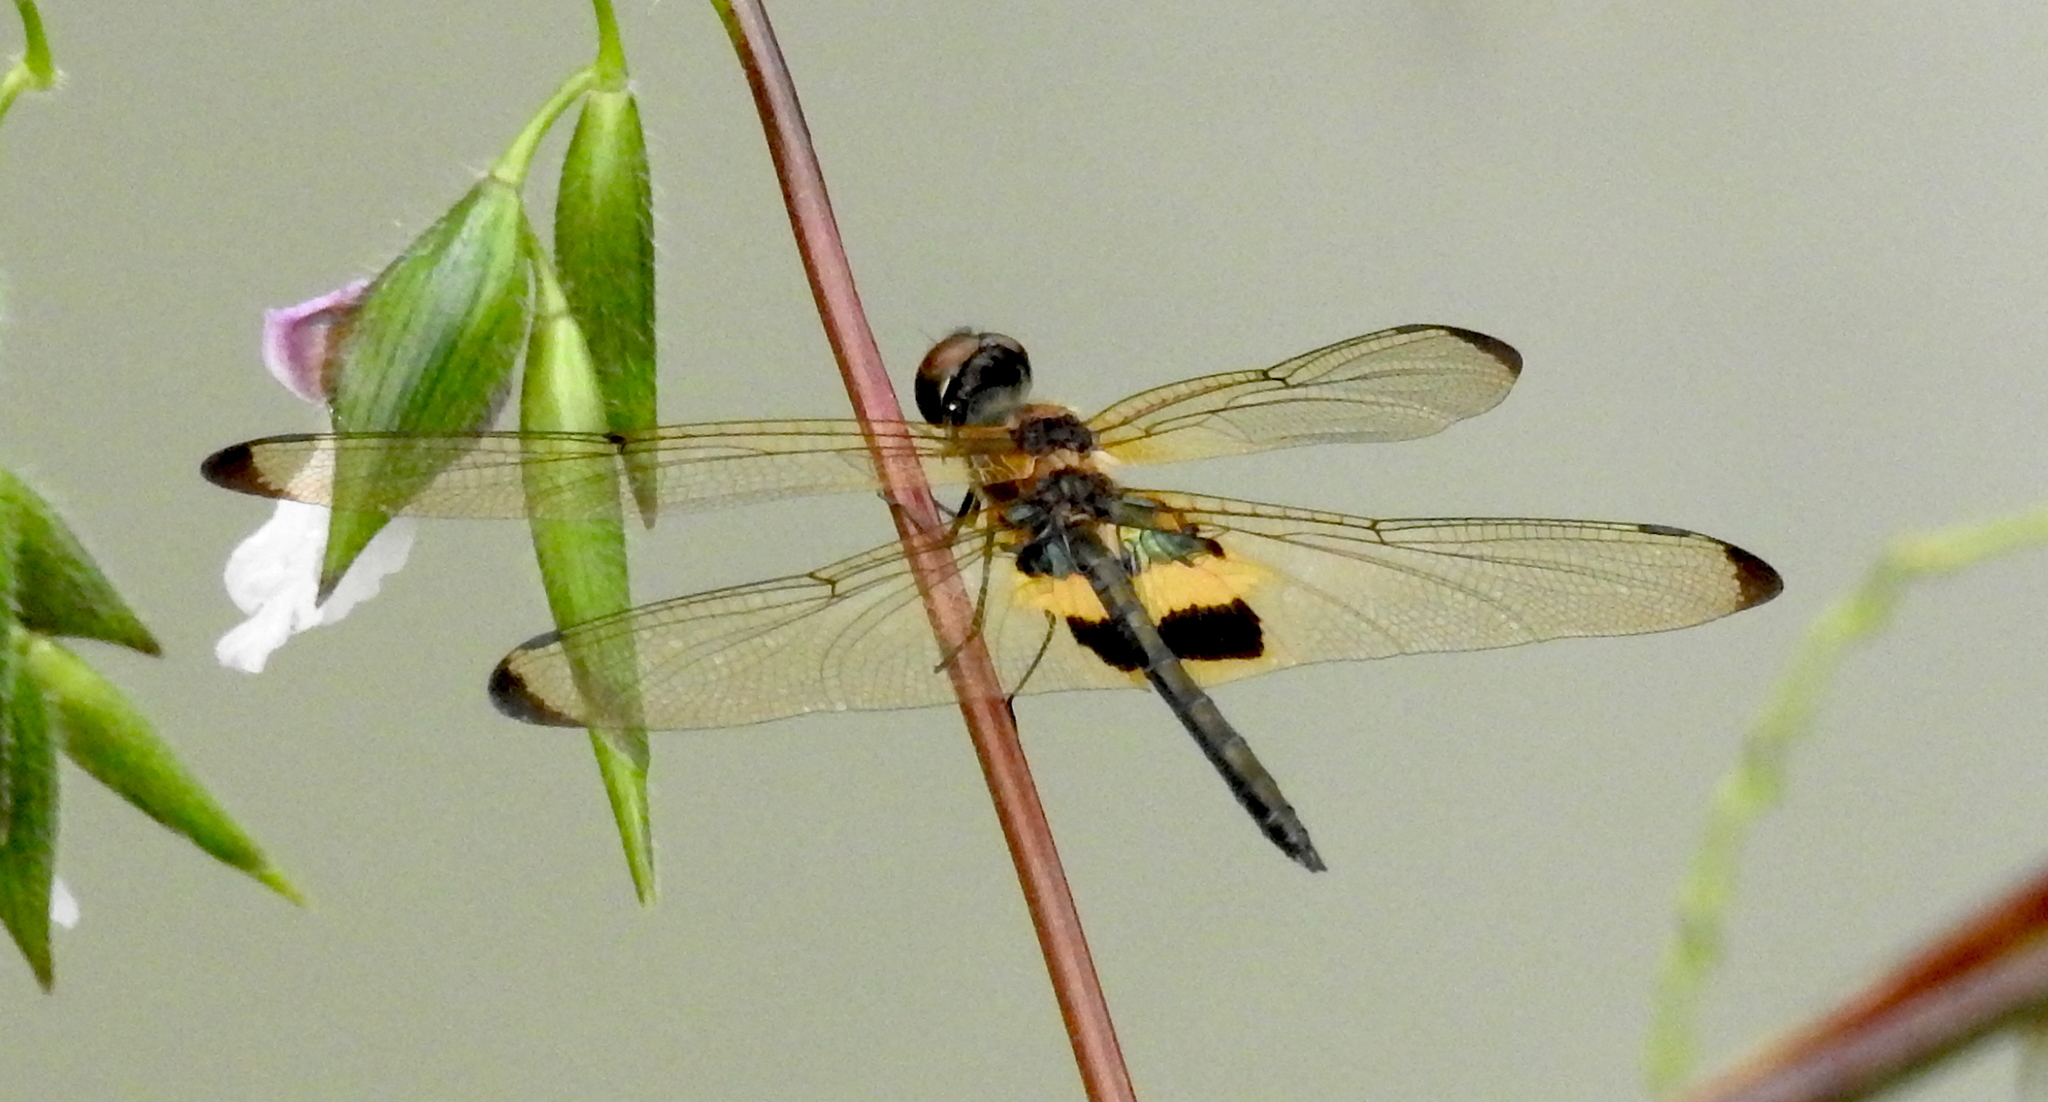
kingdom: Animalia
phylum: Arthropoda
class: Insecta
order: Odonata
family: Libellulidae
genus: Rhyothemis
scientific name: Rhyothemis phyllis
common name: Yellow-barred flutterer
